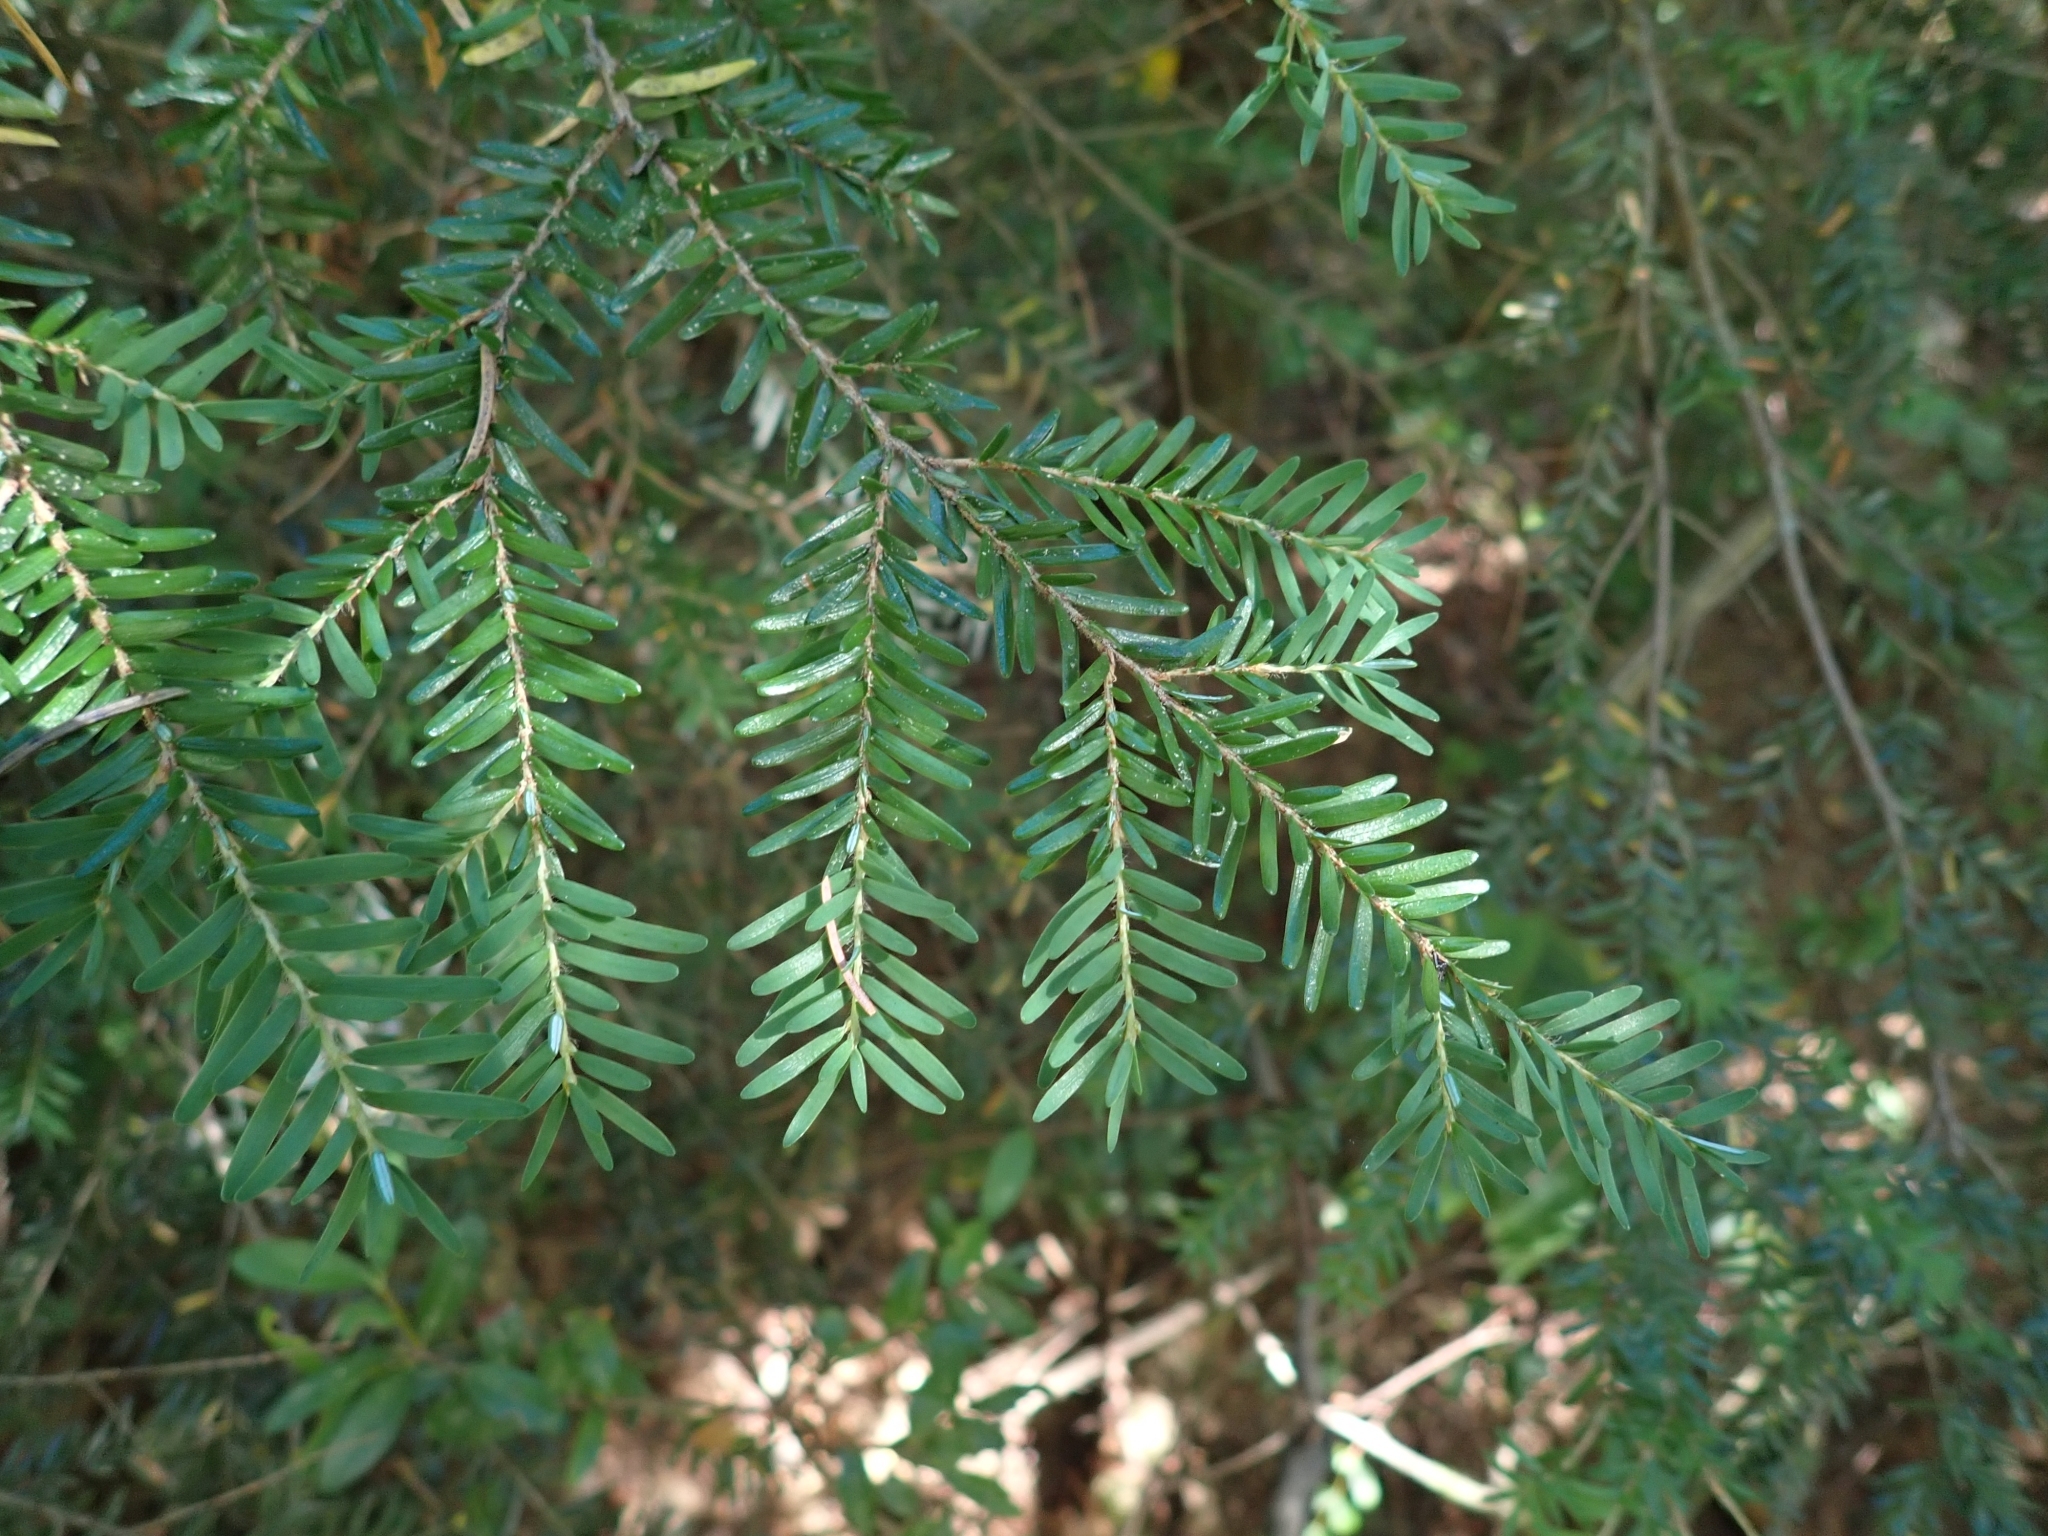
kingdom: Plantae
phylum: Tracheophyta
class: Pinopsida
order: Pinales
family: Pinaceae
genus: Tsuga
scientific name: Tsuga heterophylla
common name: Western hemlock
